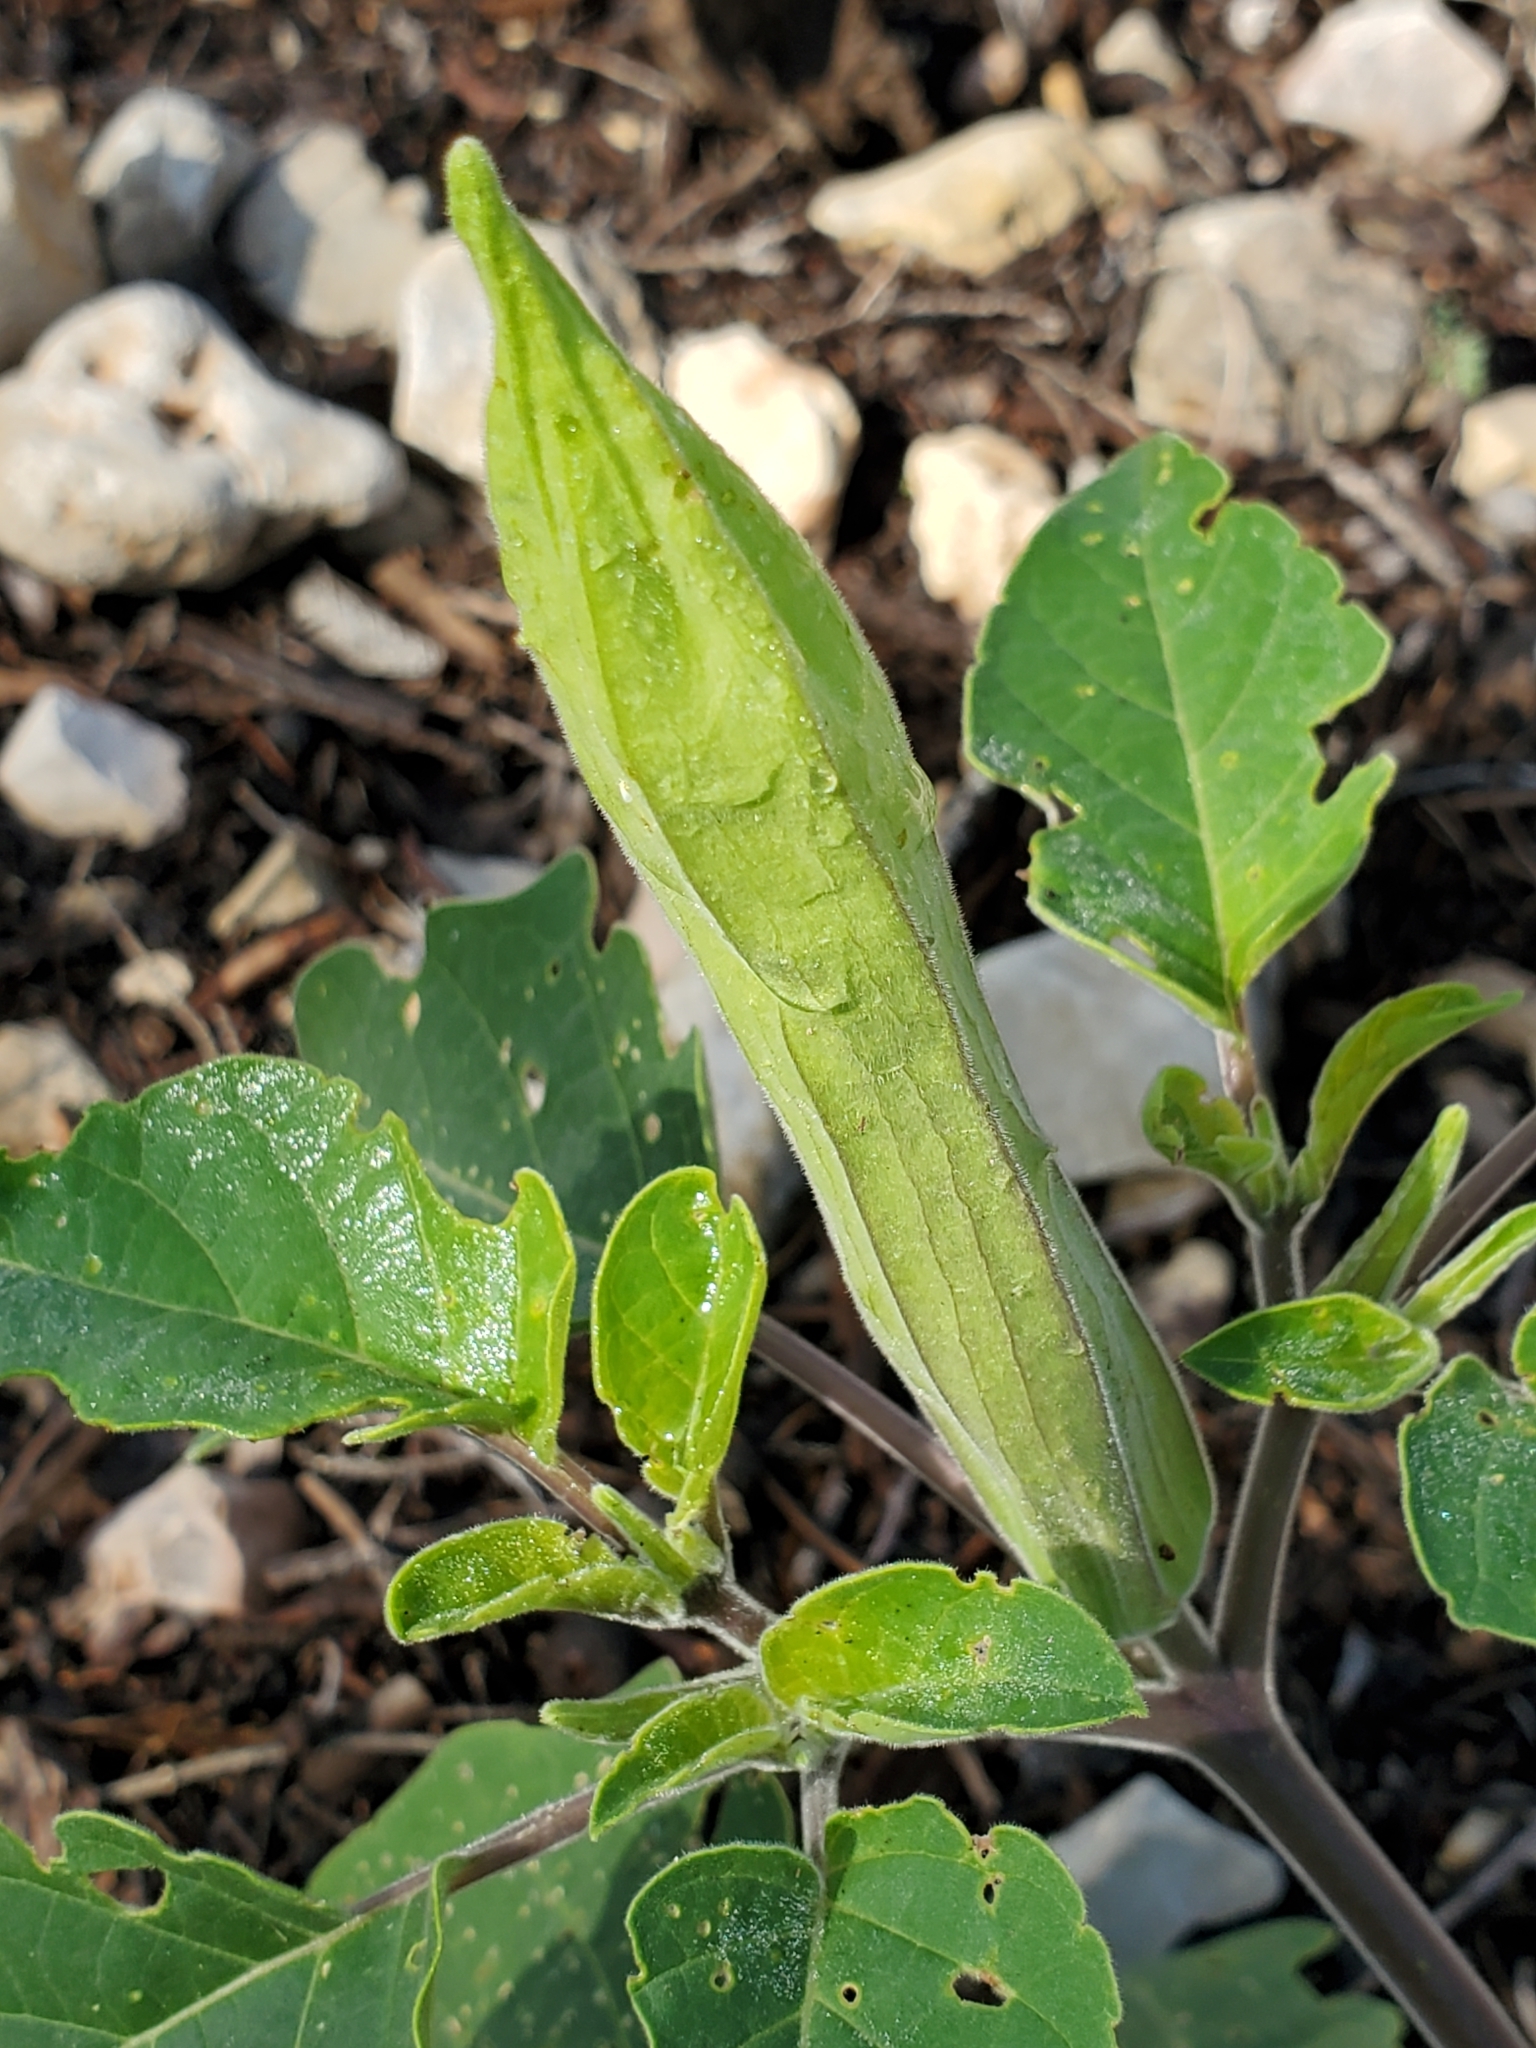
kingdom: Plantae
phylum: Tracheophyta
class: Magnoliopsida
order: Solanales
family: Solanaceae
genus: Datura
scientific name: Datura innoxia
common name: Downy thorn-apple
